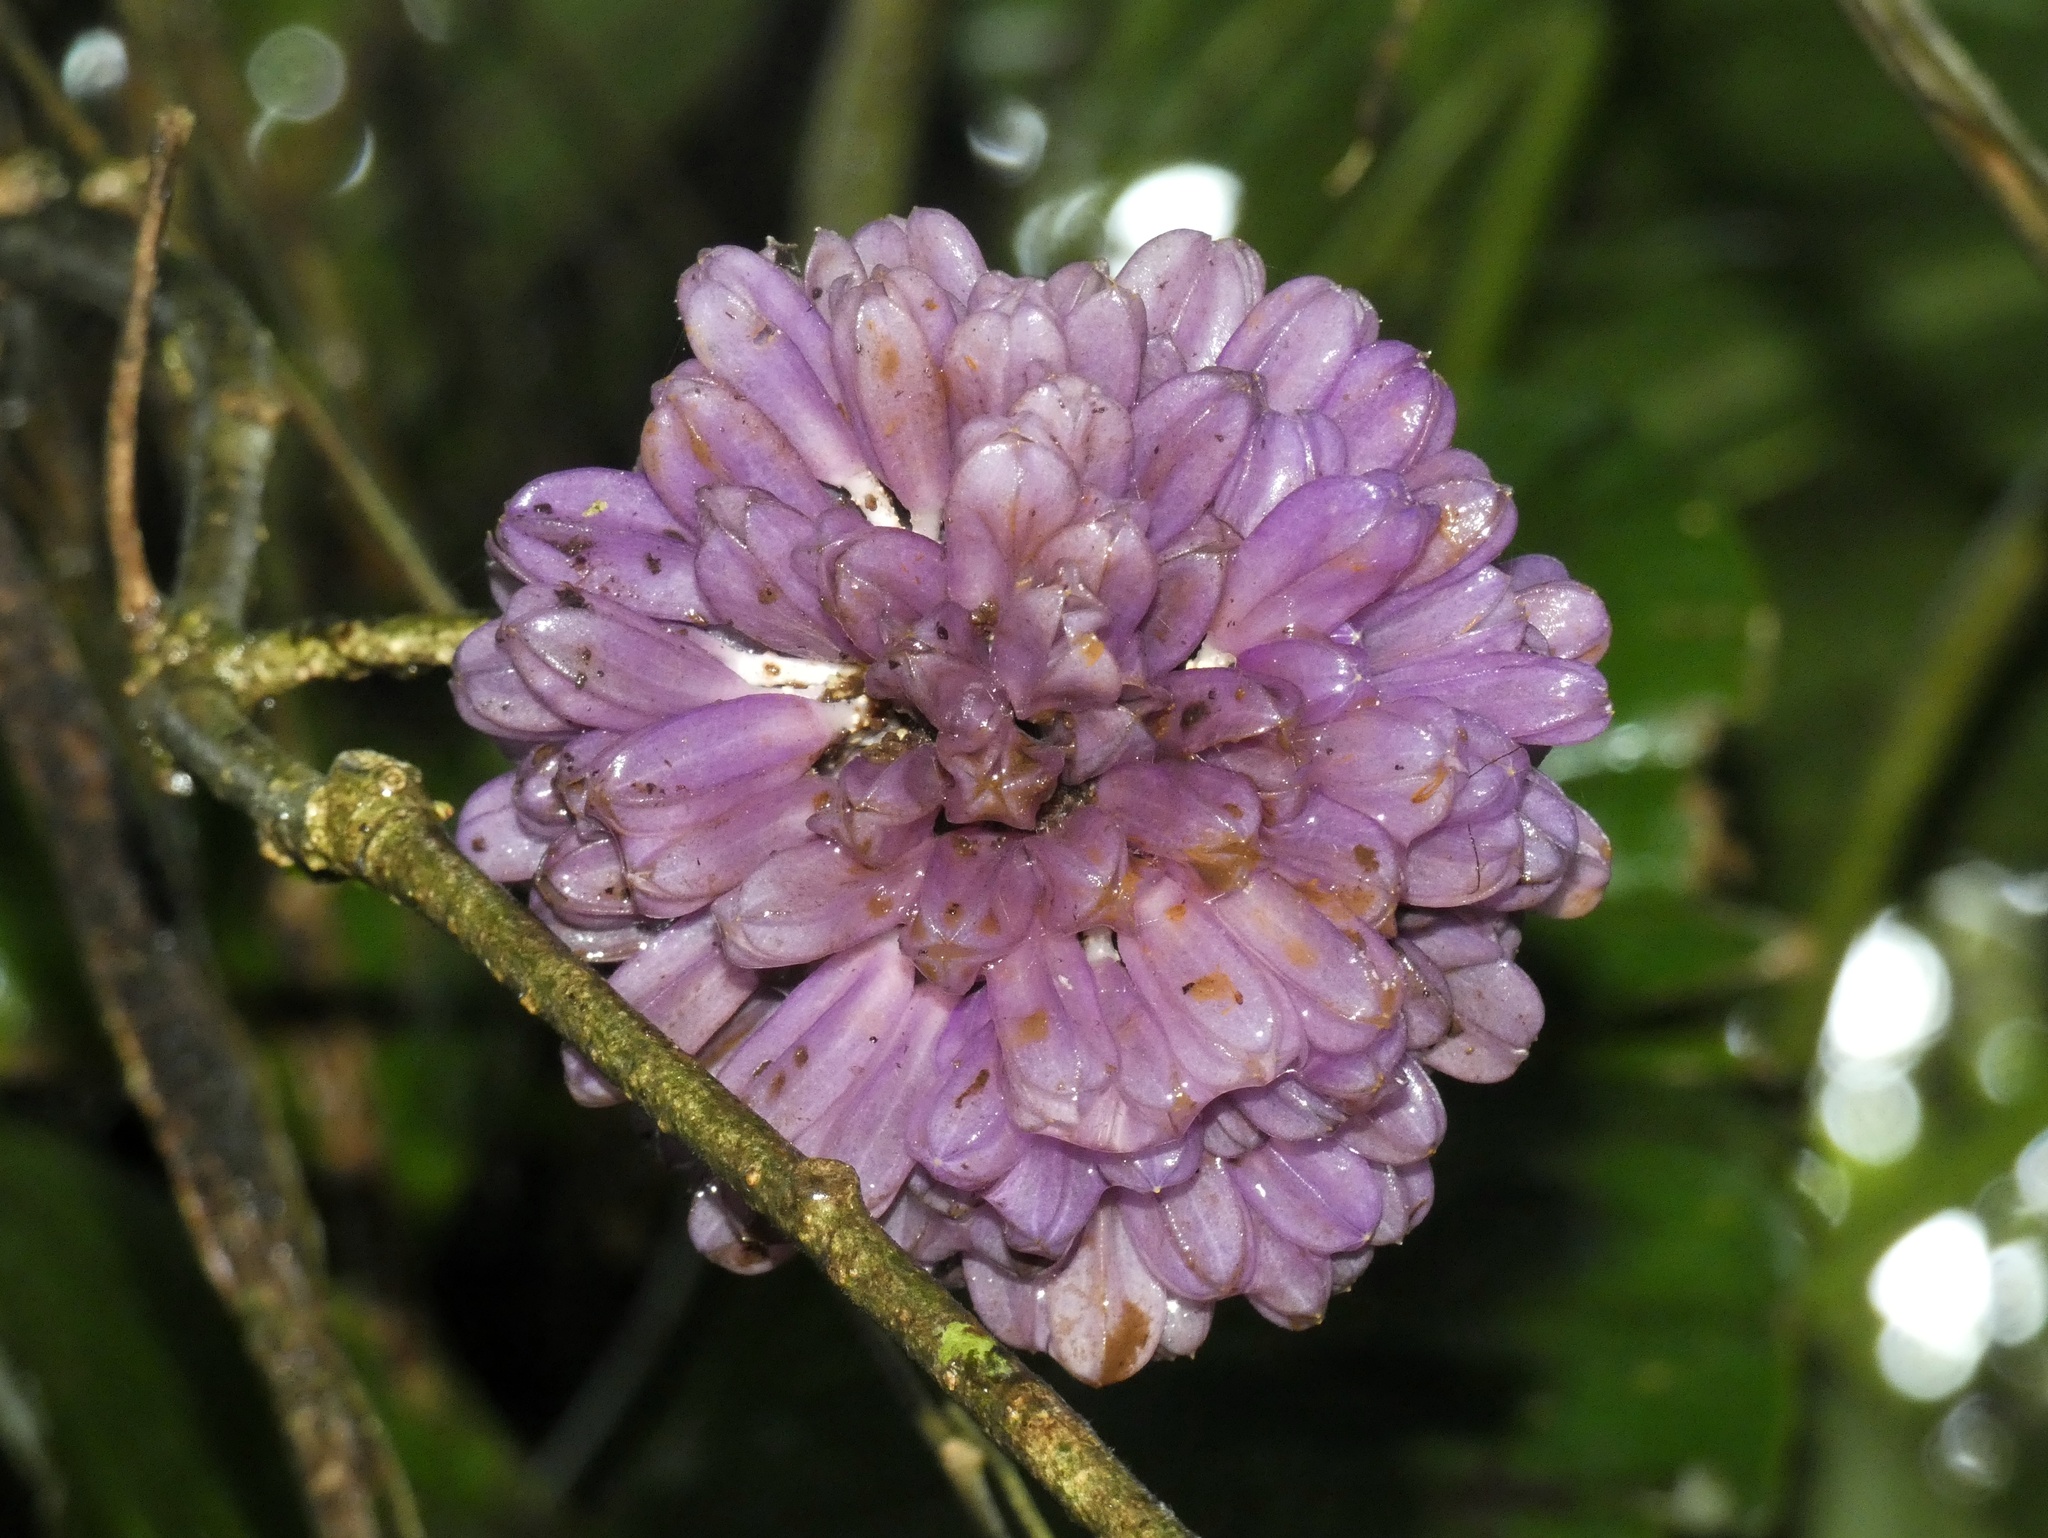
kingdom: Plantae
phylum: Tracheophyta
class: Magnoliopsida
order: Solanales
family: Solanaceae
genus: Juanulloa
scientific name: Juanulloa wardiana
